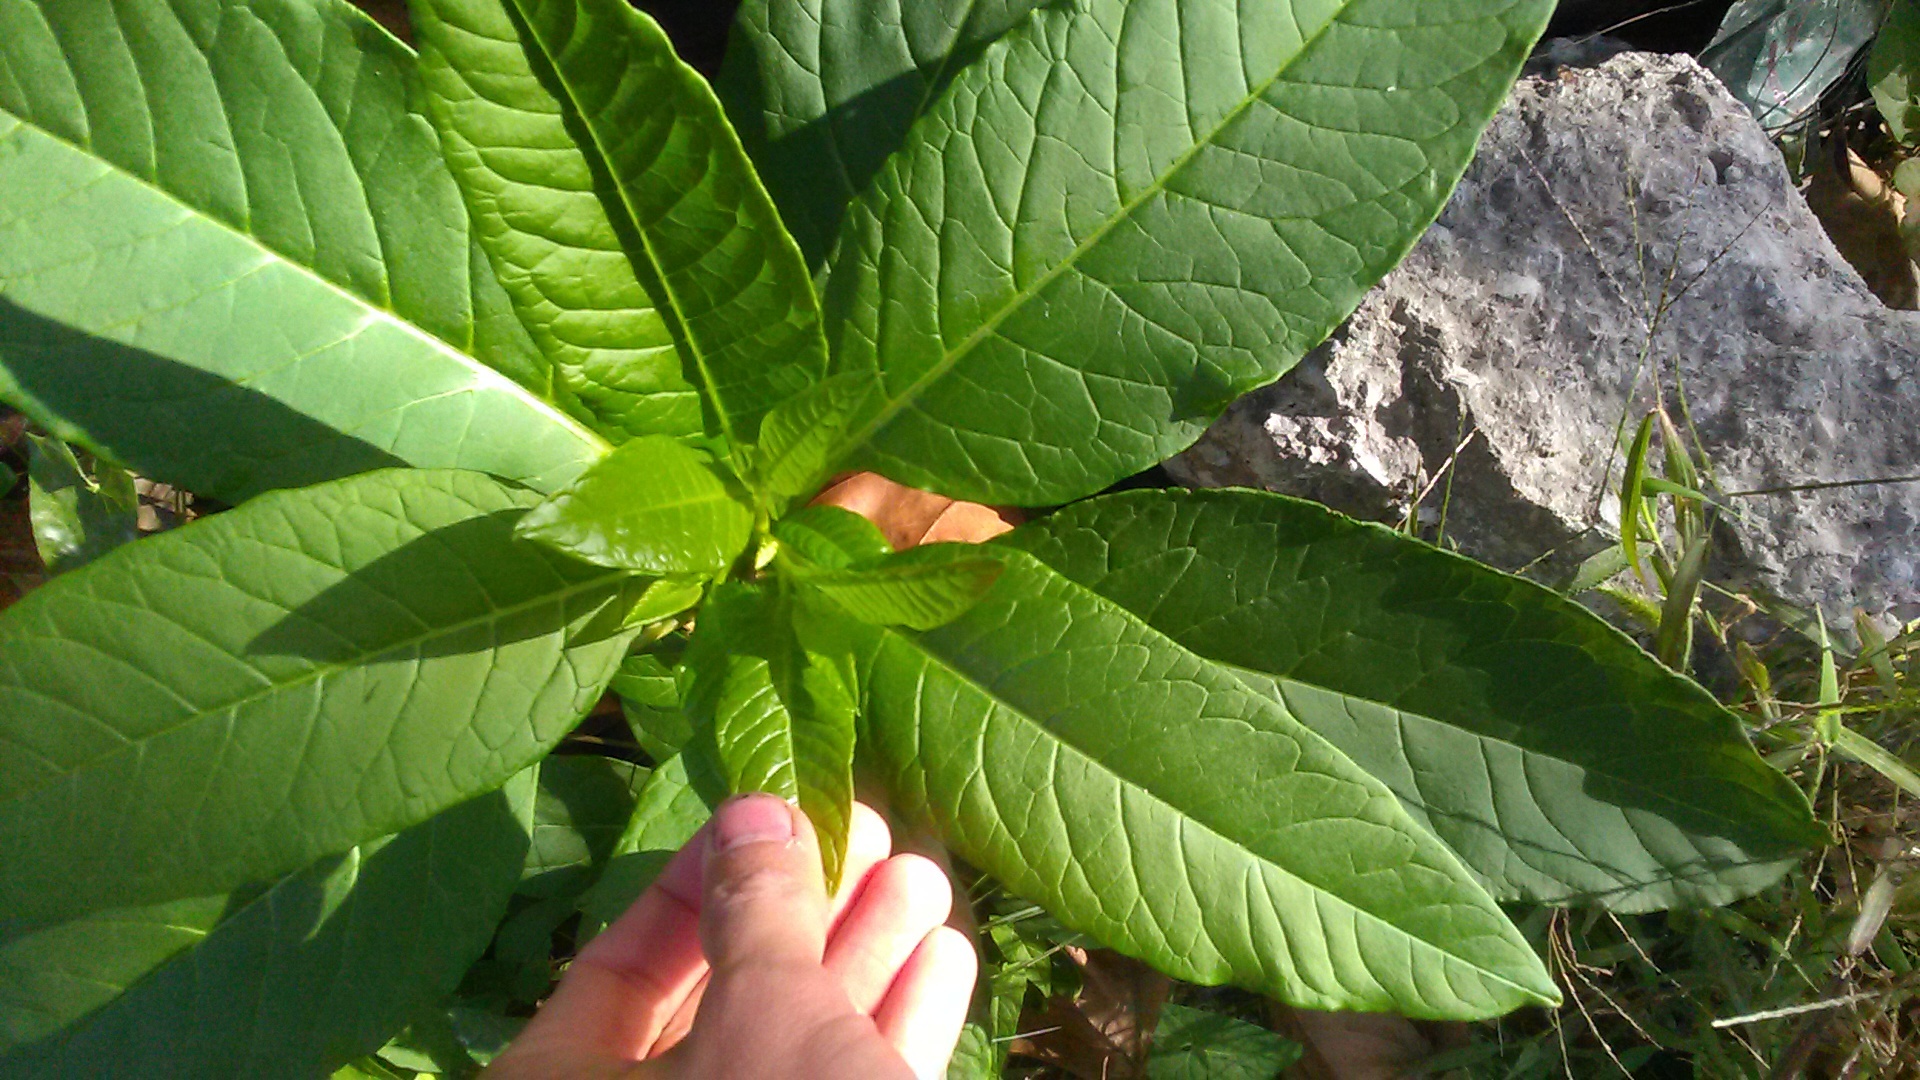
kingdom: Plantae
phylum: Tracheophyta
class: Magnoliopsida
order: Caryophyllales
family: Phytolaccaceae
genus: Phytolacca
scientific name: Phytolacca americana
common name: American pokeweed
